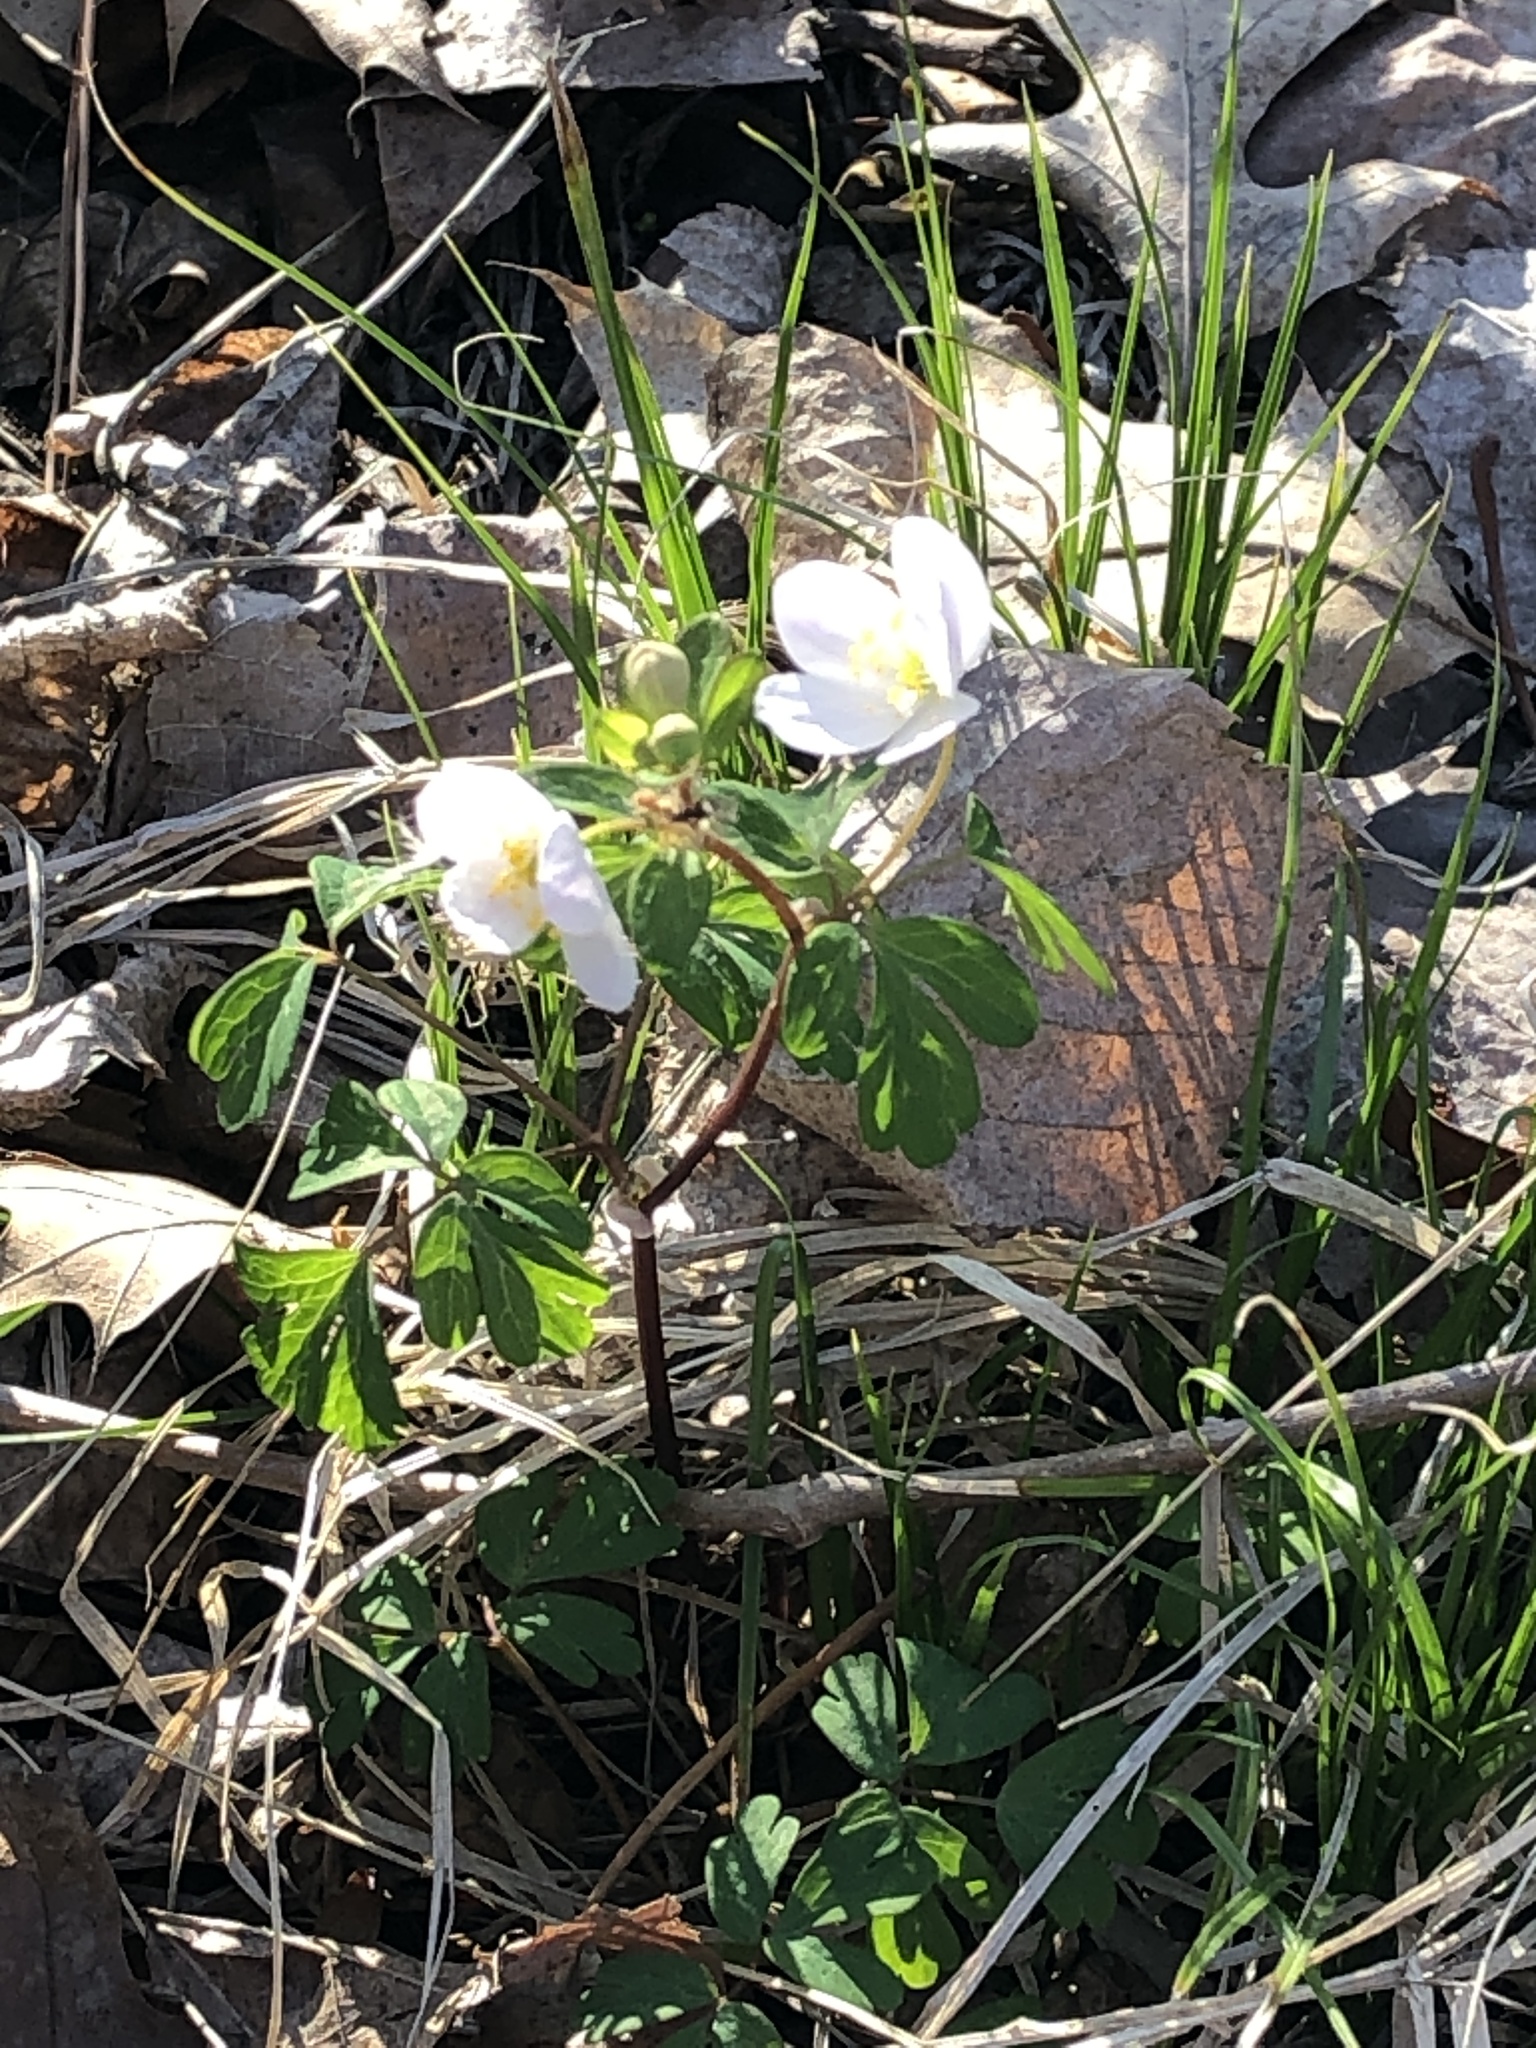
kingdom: Plantae
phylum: Tracheophyta
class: Magnoliopsida
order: Ranunculales
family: Ranunculaceae
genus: Enemion
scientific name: Enemion biternatum
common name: Eastern false rue-anemone
